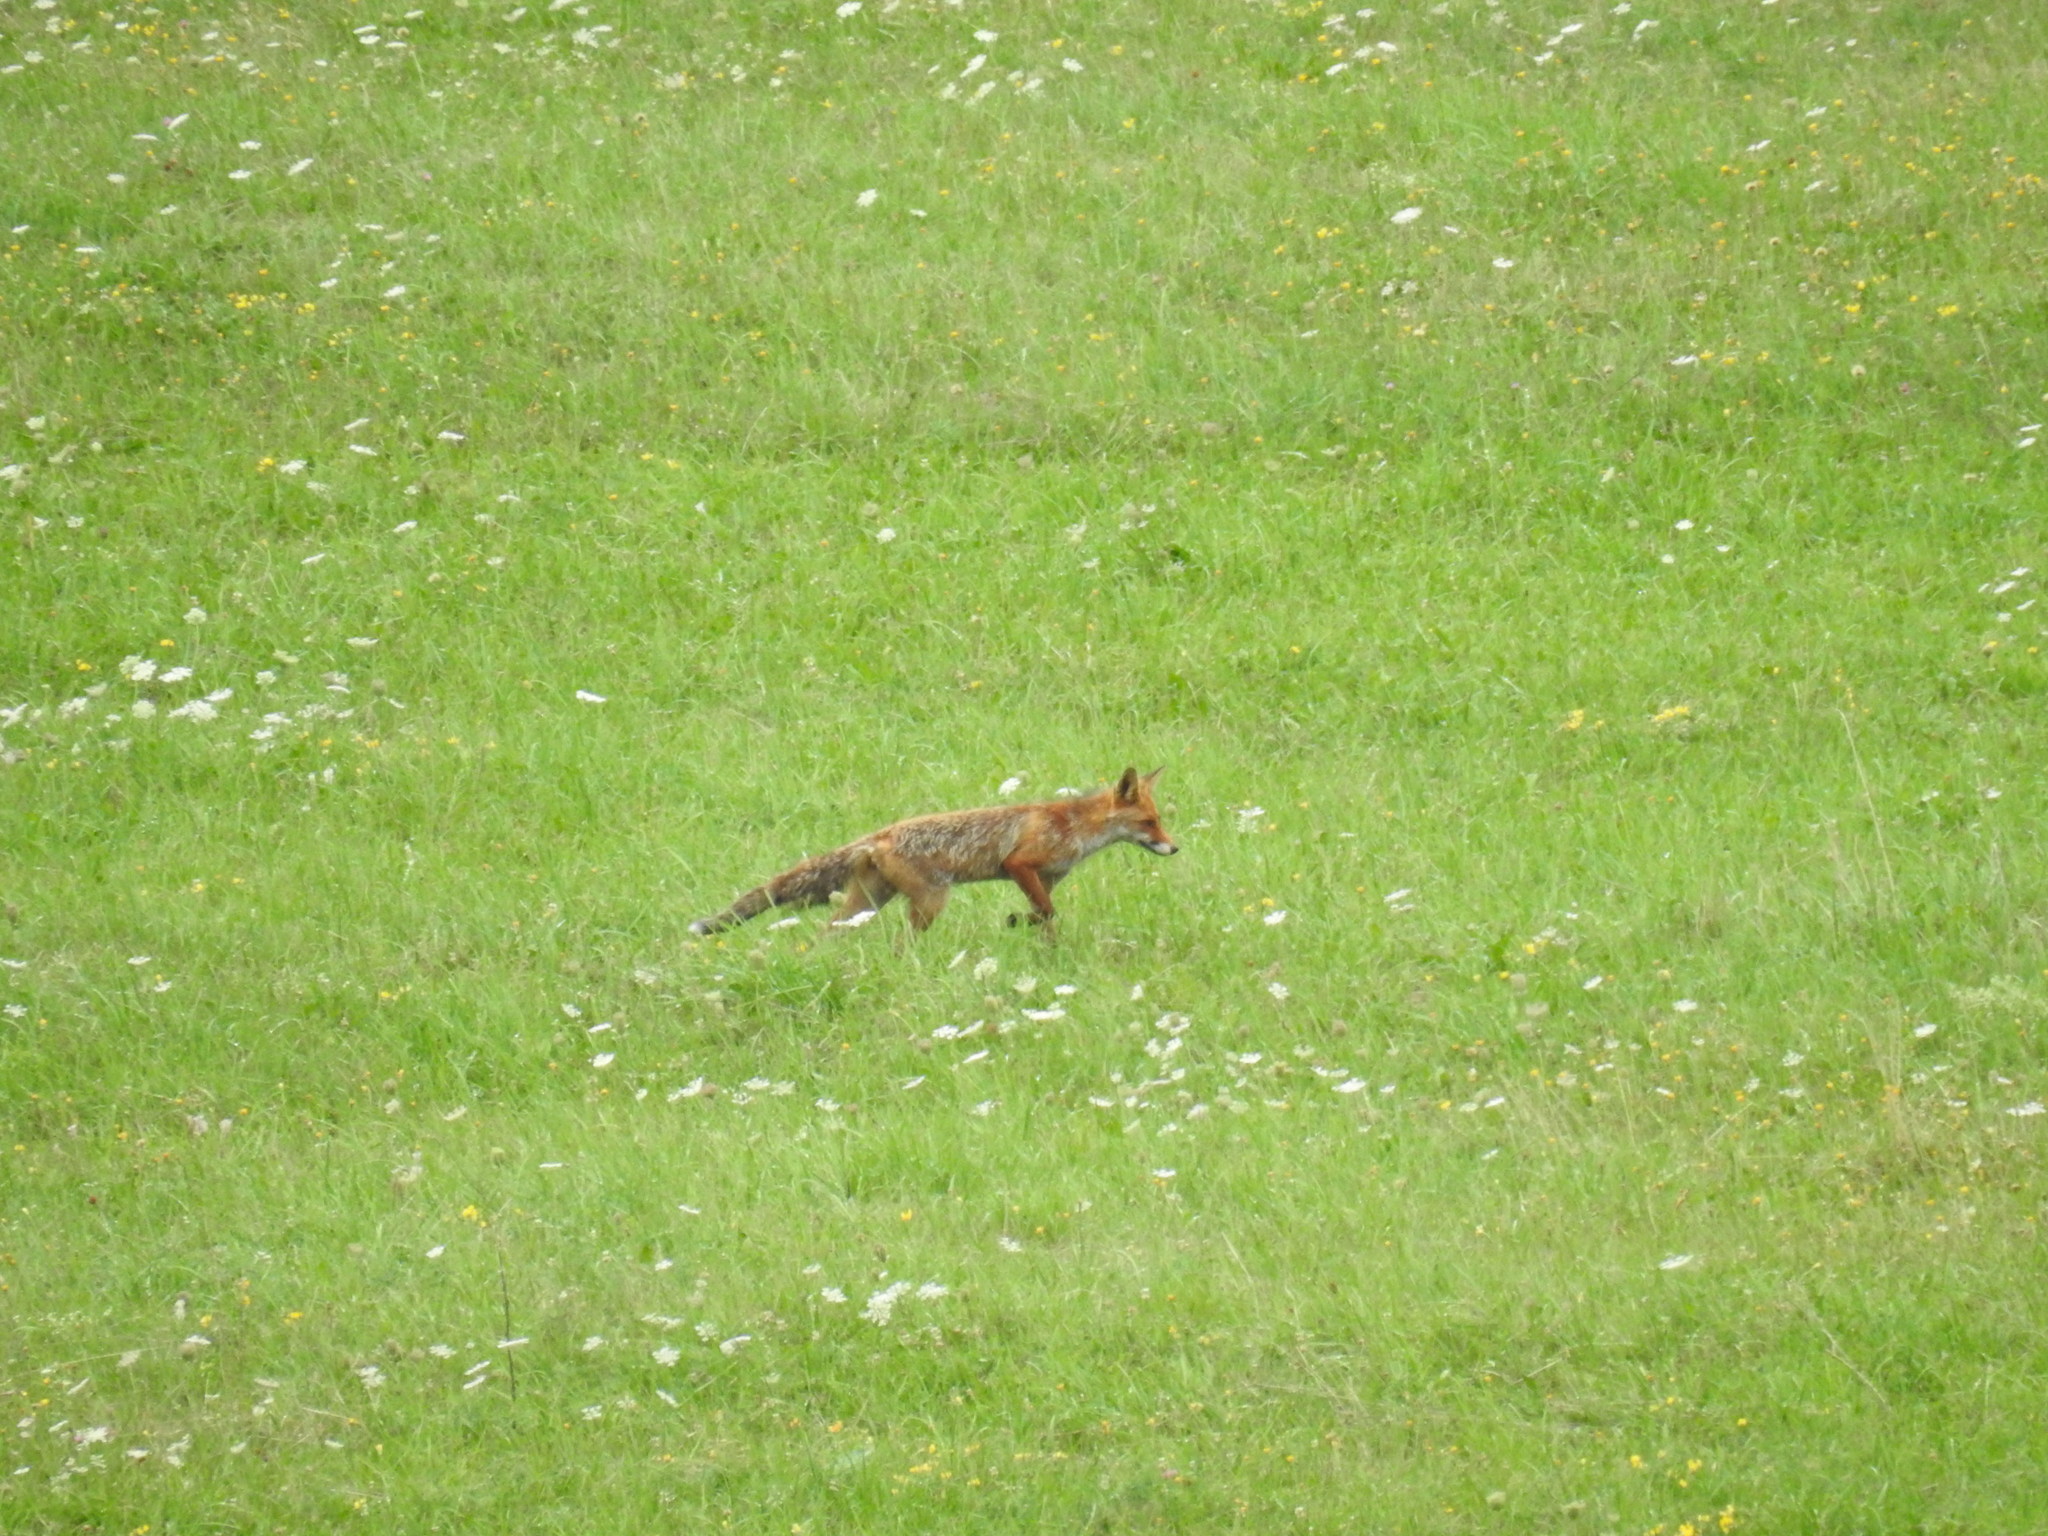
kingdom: Animalia
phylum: Chordata
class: Mammalia
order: Carnivora
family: Canidae
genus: Vulpes
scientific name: Vulpes vulpes
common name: Red fox
